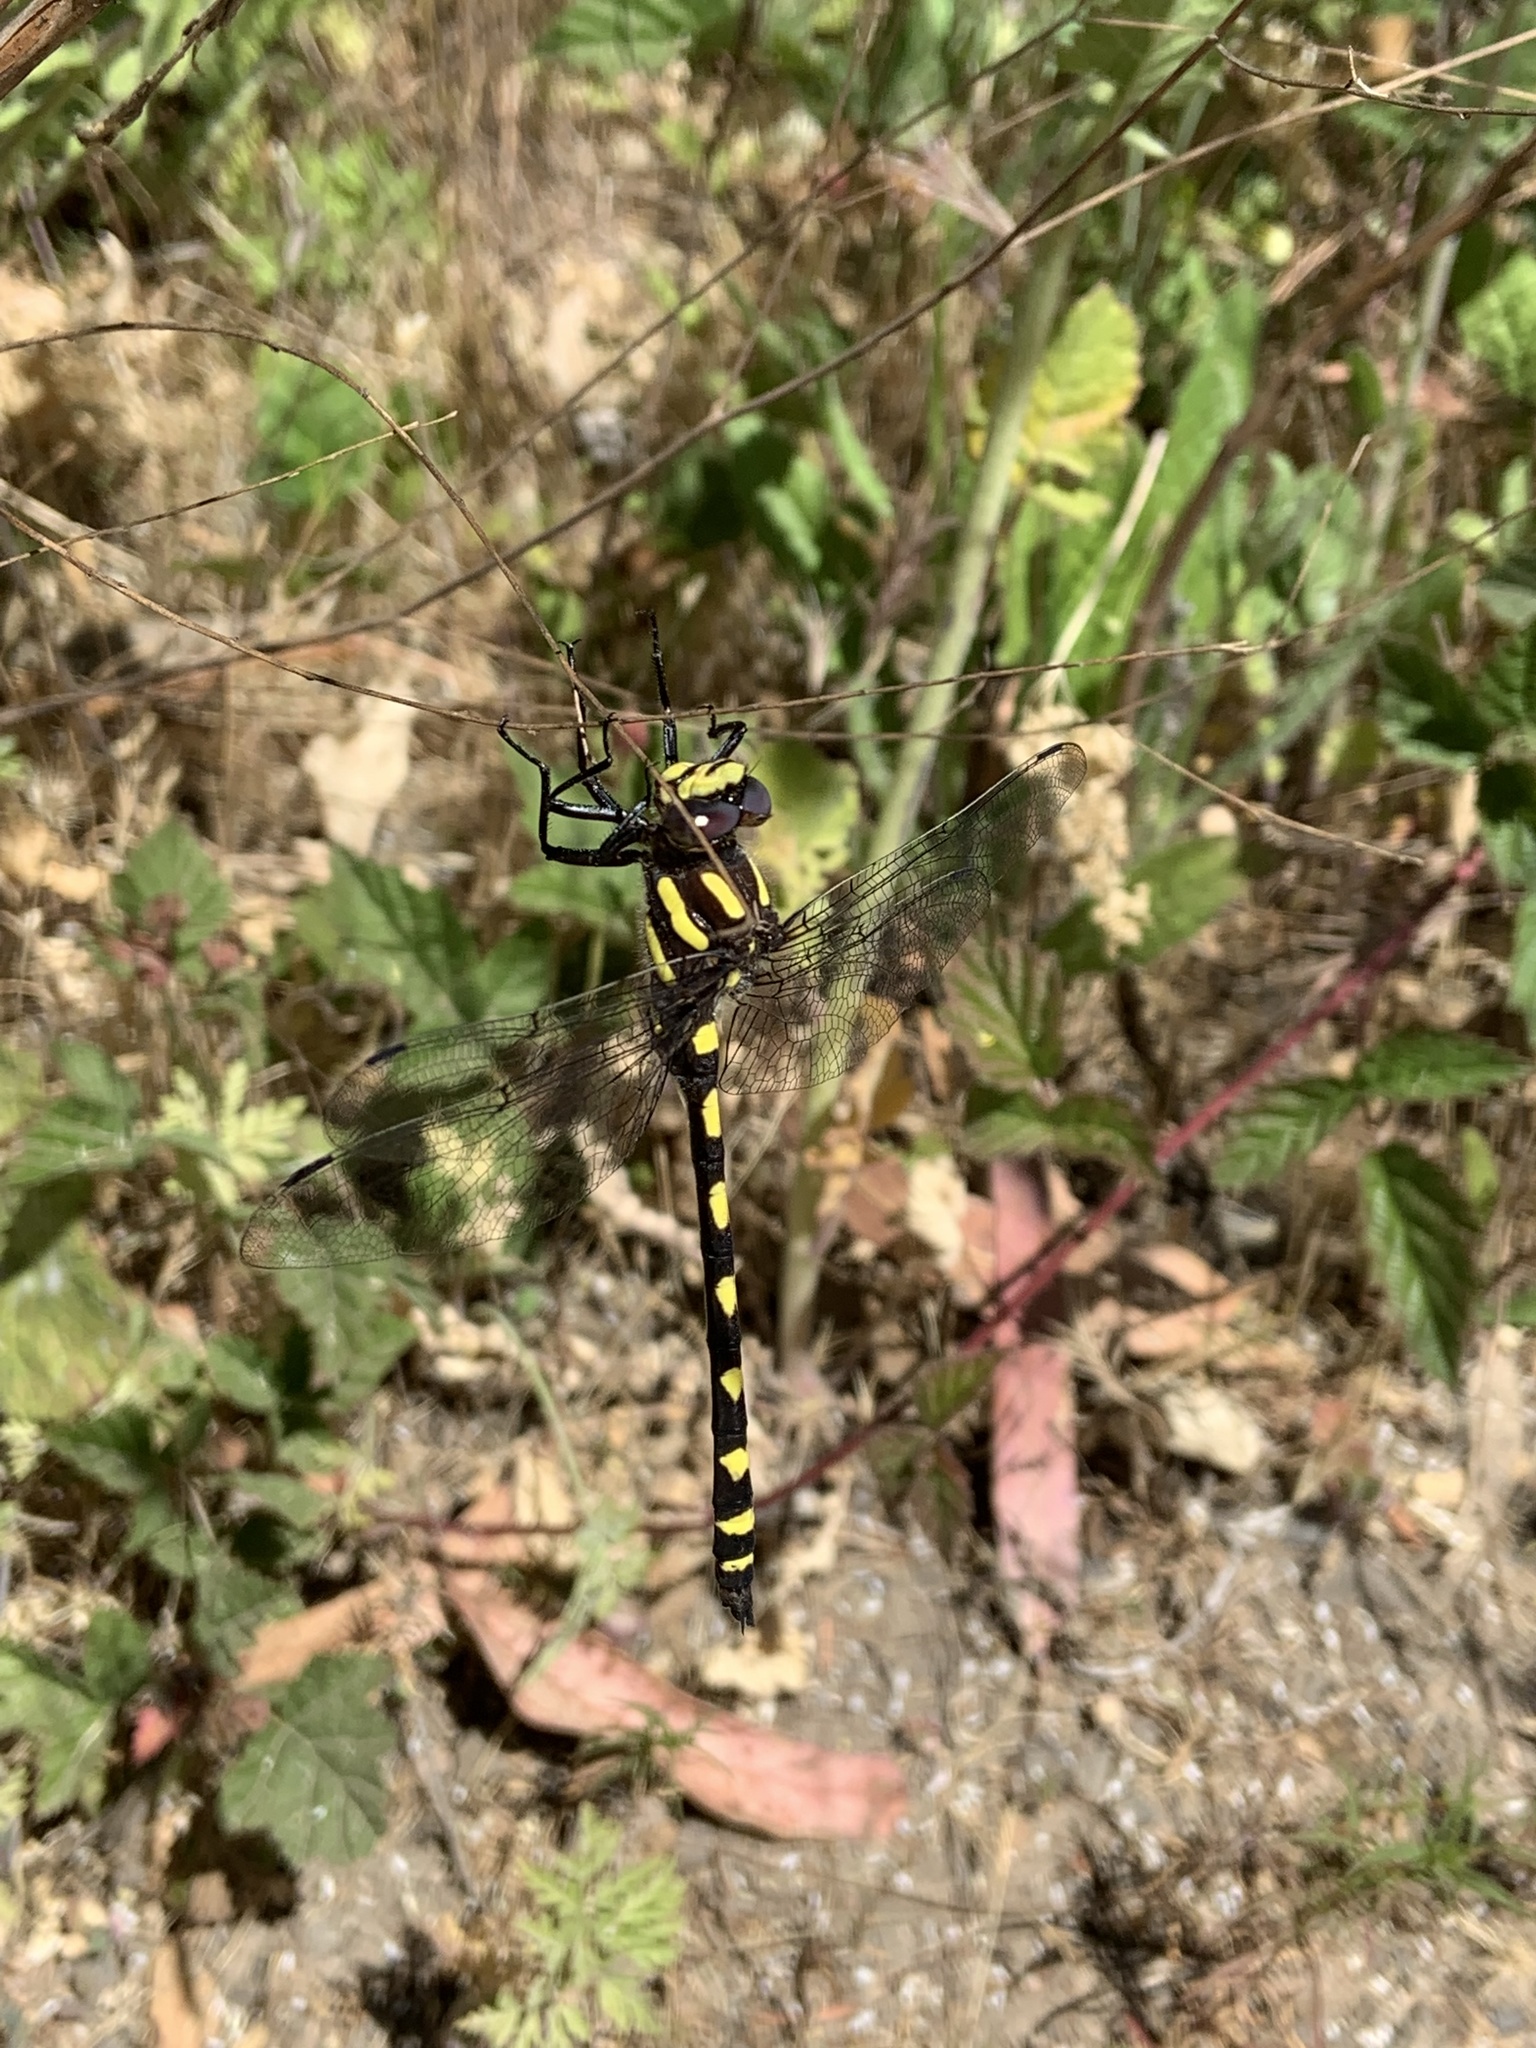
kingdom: Animalia
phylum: Arthropoda
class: Insecta
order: Odonata
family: Cordulegastridae
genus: Cordulegaster
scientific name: Cordulegaster dorsalis
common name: Pacific spiketail
